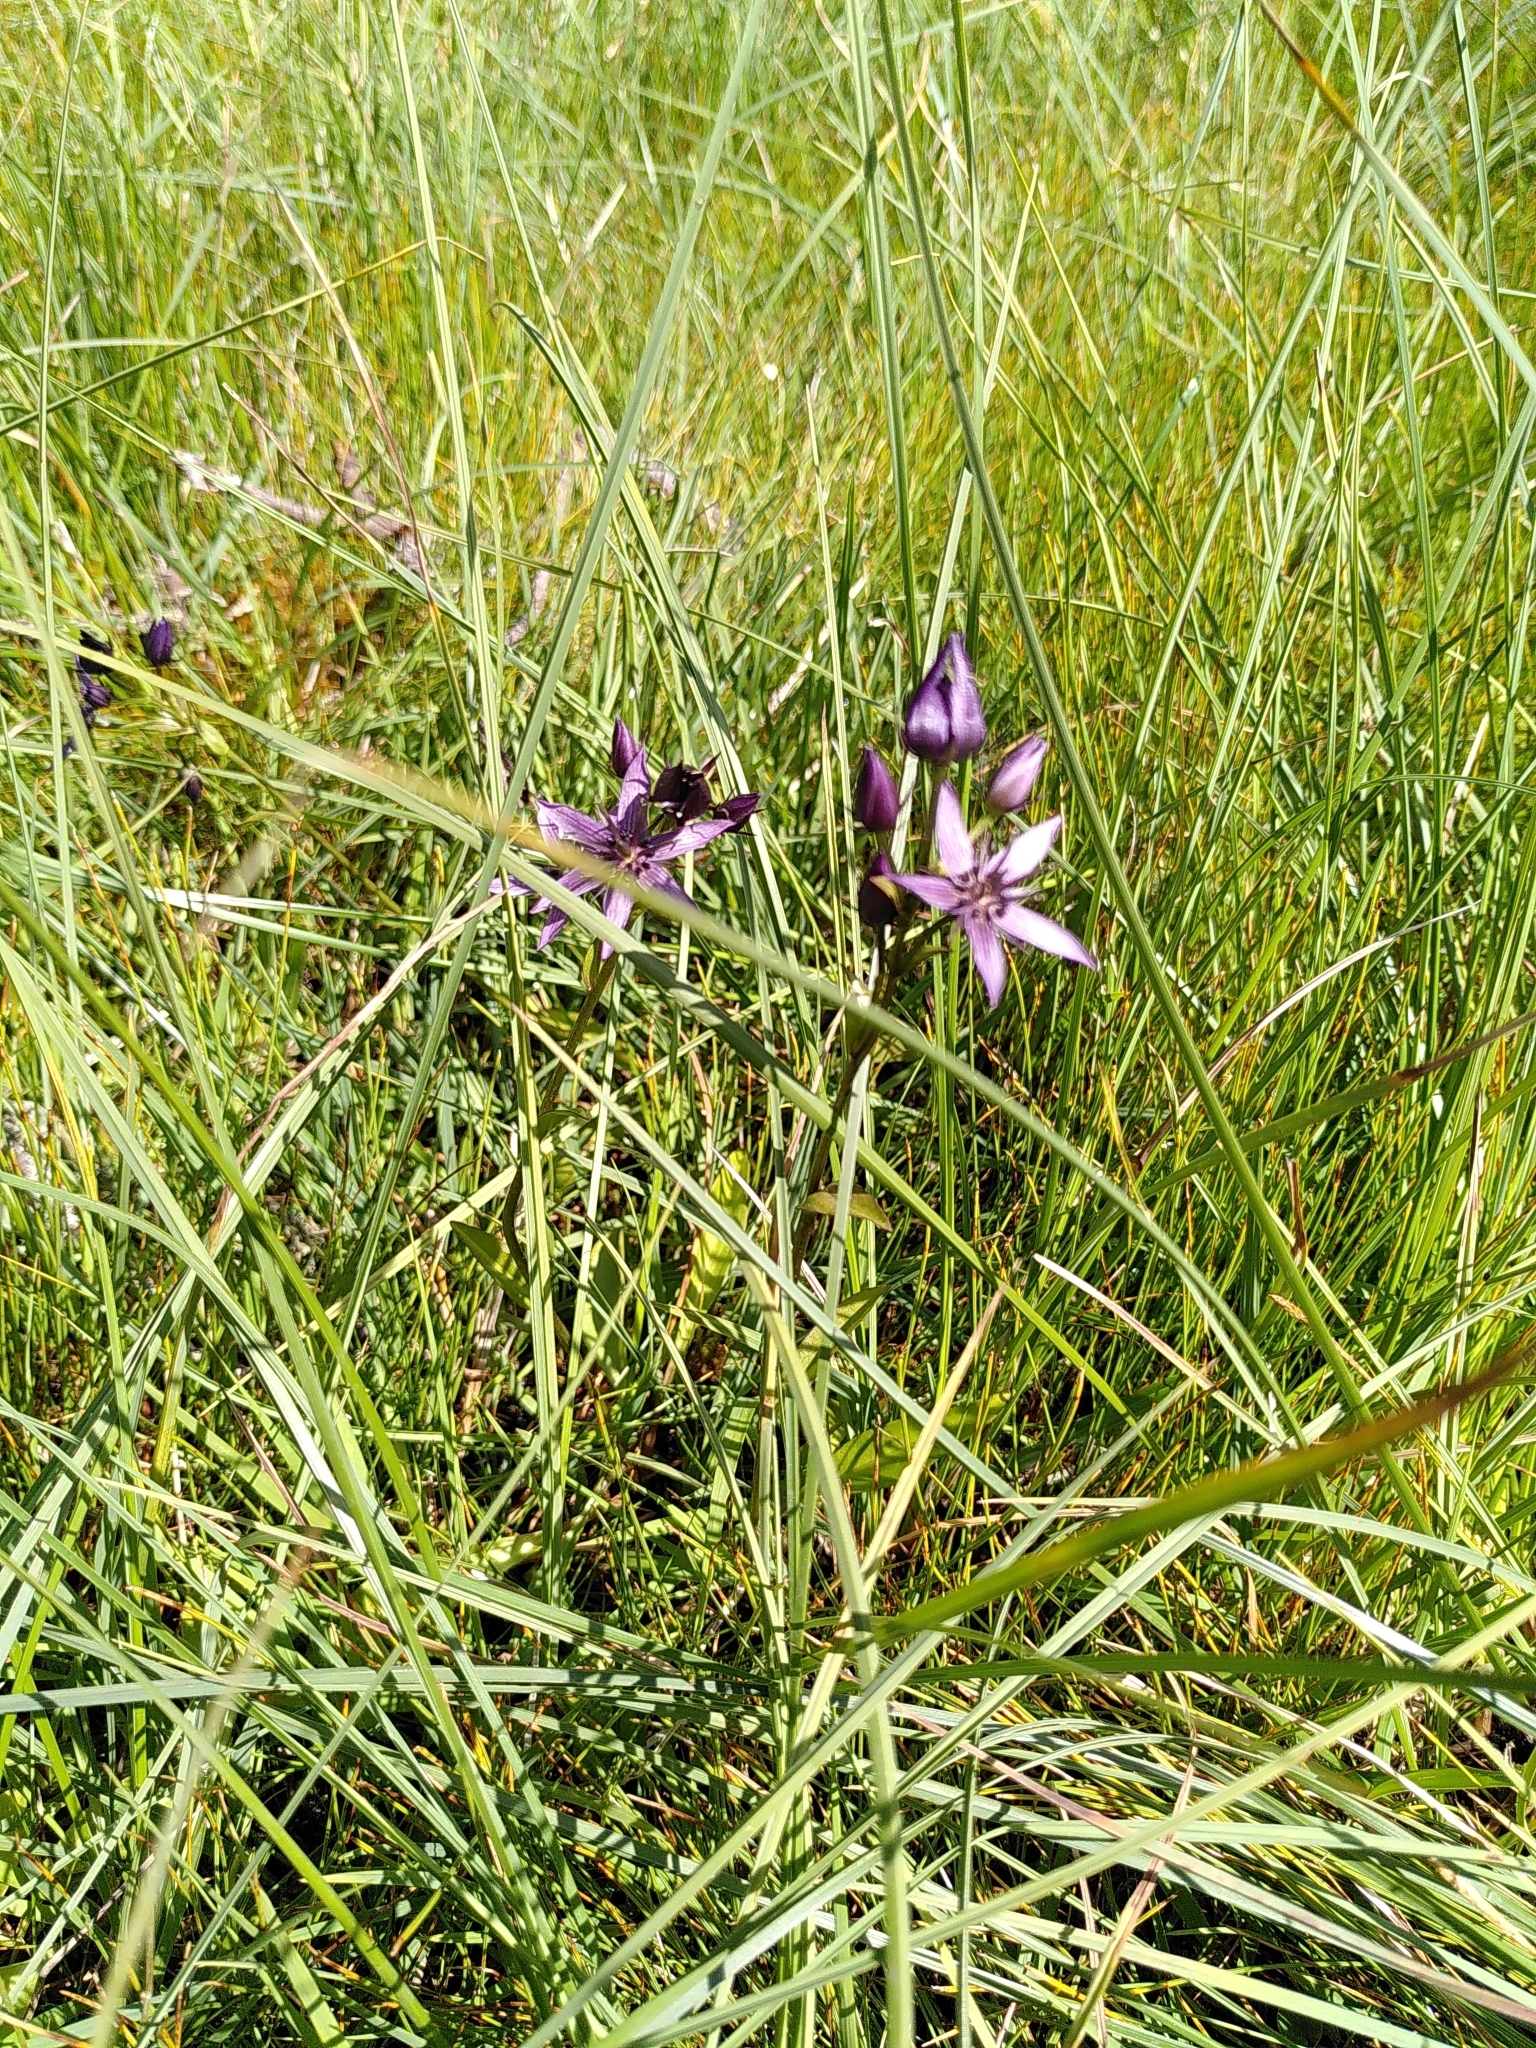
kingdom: Plantae
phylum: Tracheophyta
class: Magnoliopsida
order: Gentianales
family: Gentianaceae
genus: Swertia
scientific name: Swertia perennis
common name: Alpine bog swertia
